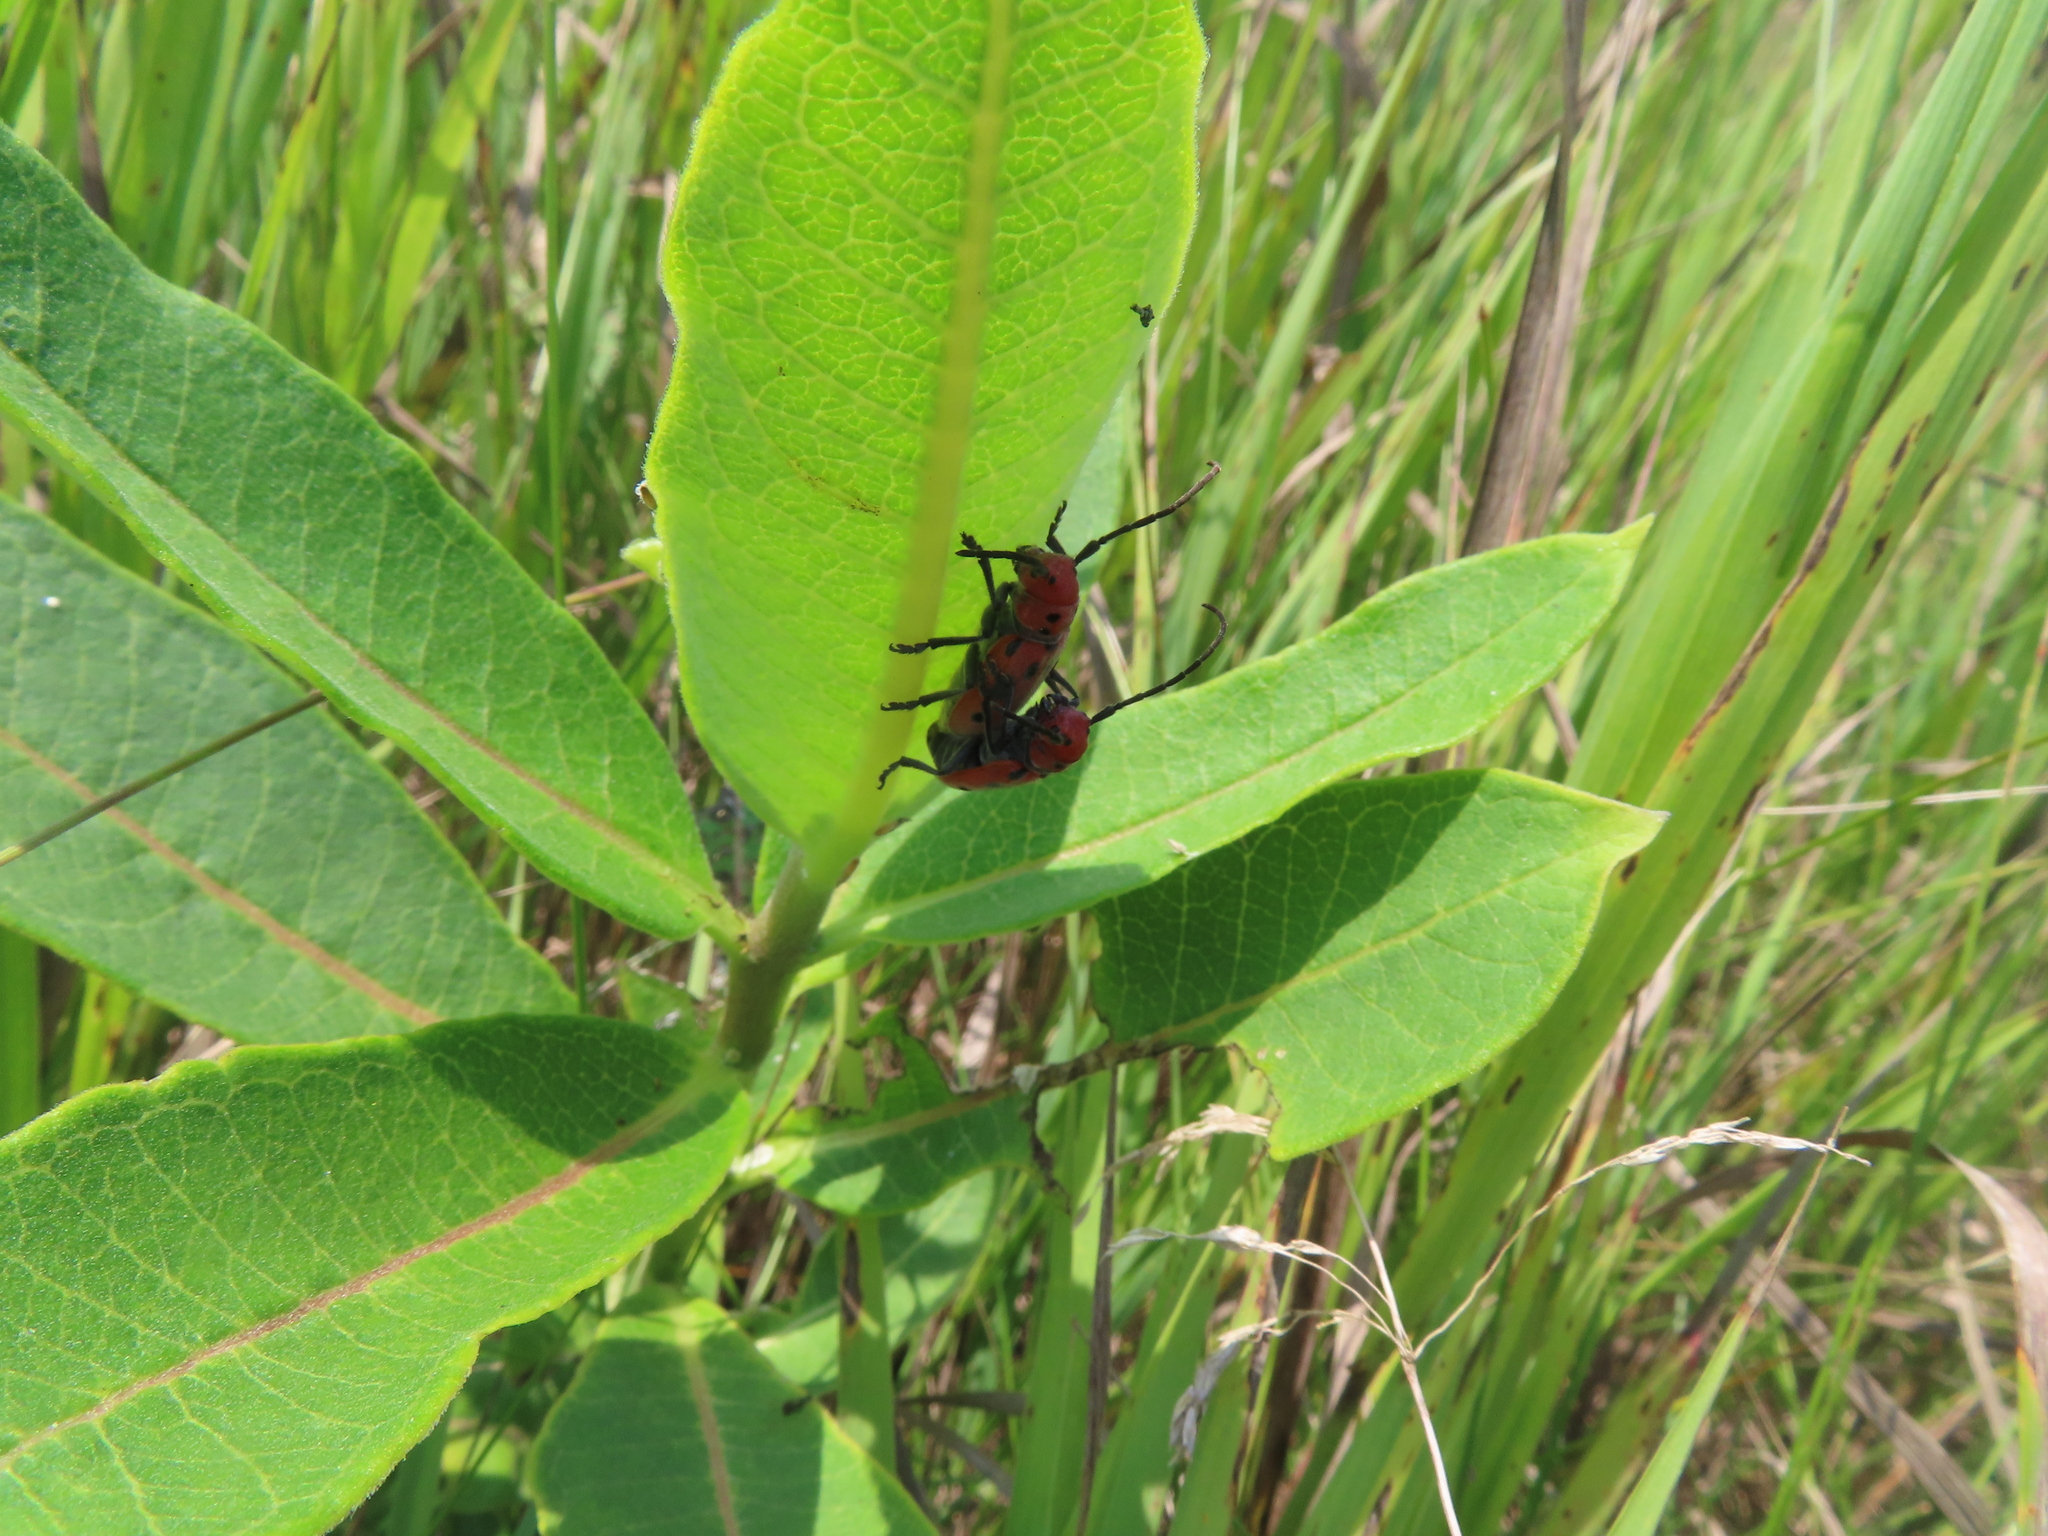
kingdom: Animalia
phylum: Arthropoda
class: Insecta
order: Coleoptera
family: Cerambycidae
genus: Tetraopes
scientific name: Tetraopes tetrophthalmus
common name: Red milkweed beetle
